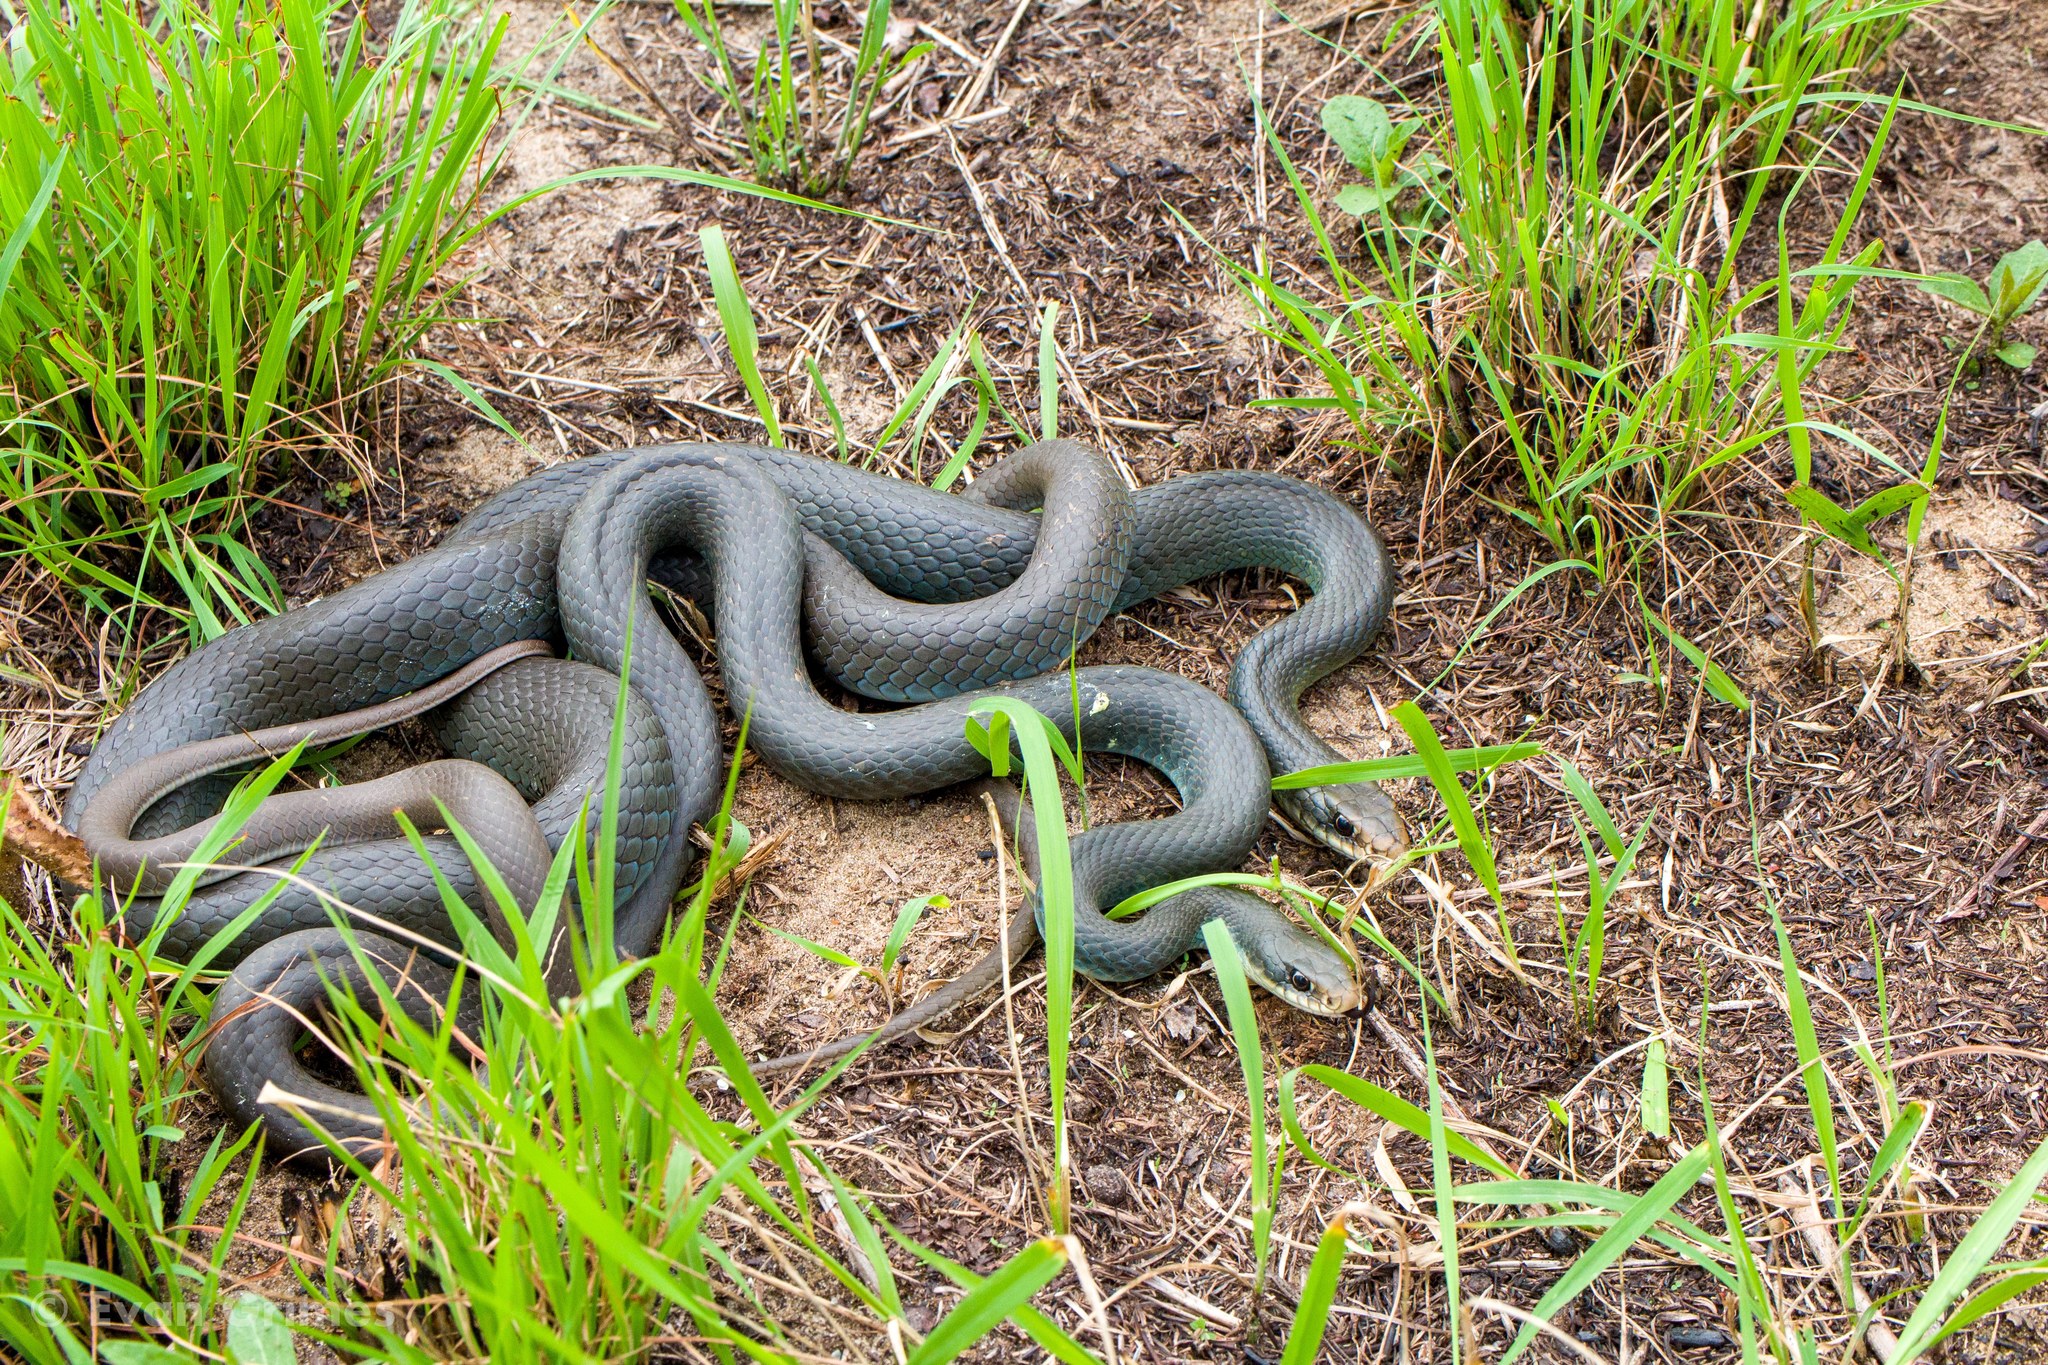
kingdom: Animalia
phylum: Chordata
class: Squamata
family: Colubridae
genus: Coluber
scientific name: Coluber constrictor
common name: Eastern racer
